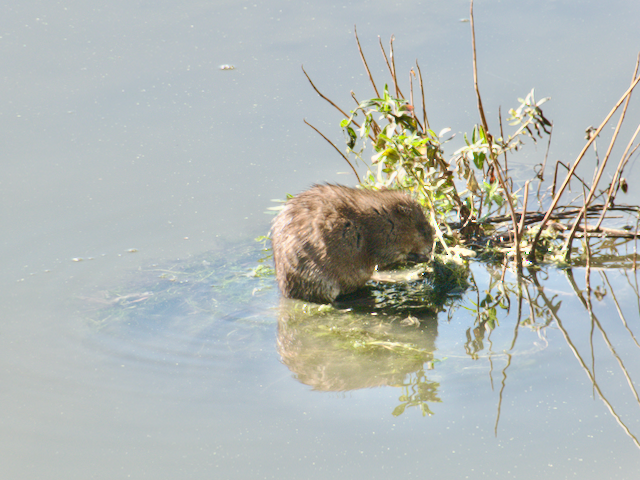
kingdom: Animalia
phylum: Chordata
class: Mammalia
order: Rodentia
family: Cricetidae
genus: Ondatra
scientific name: Ondatra zibethicus
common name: Muskrat
